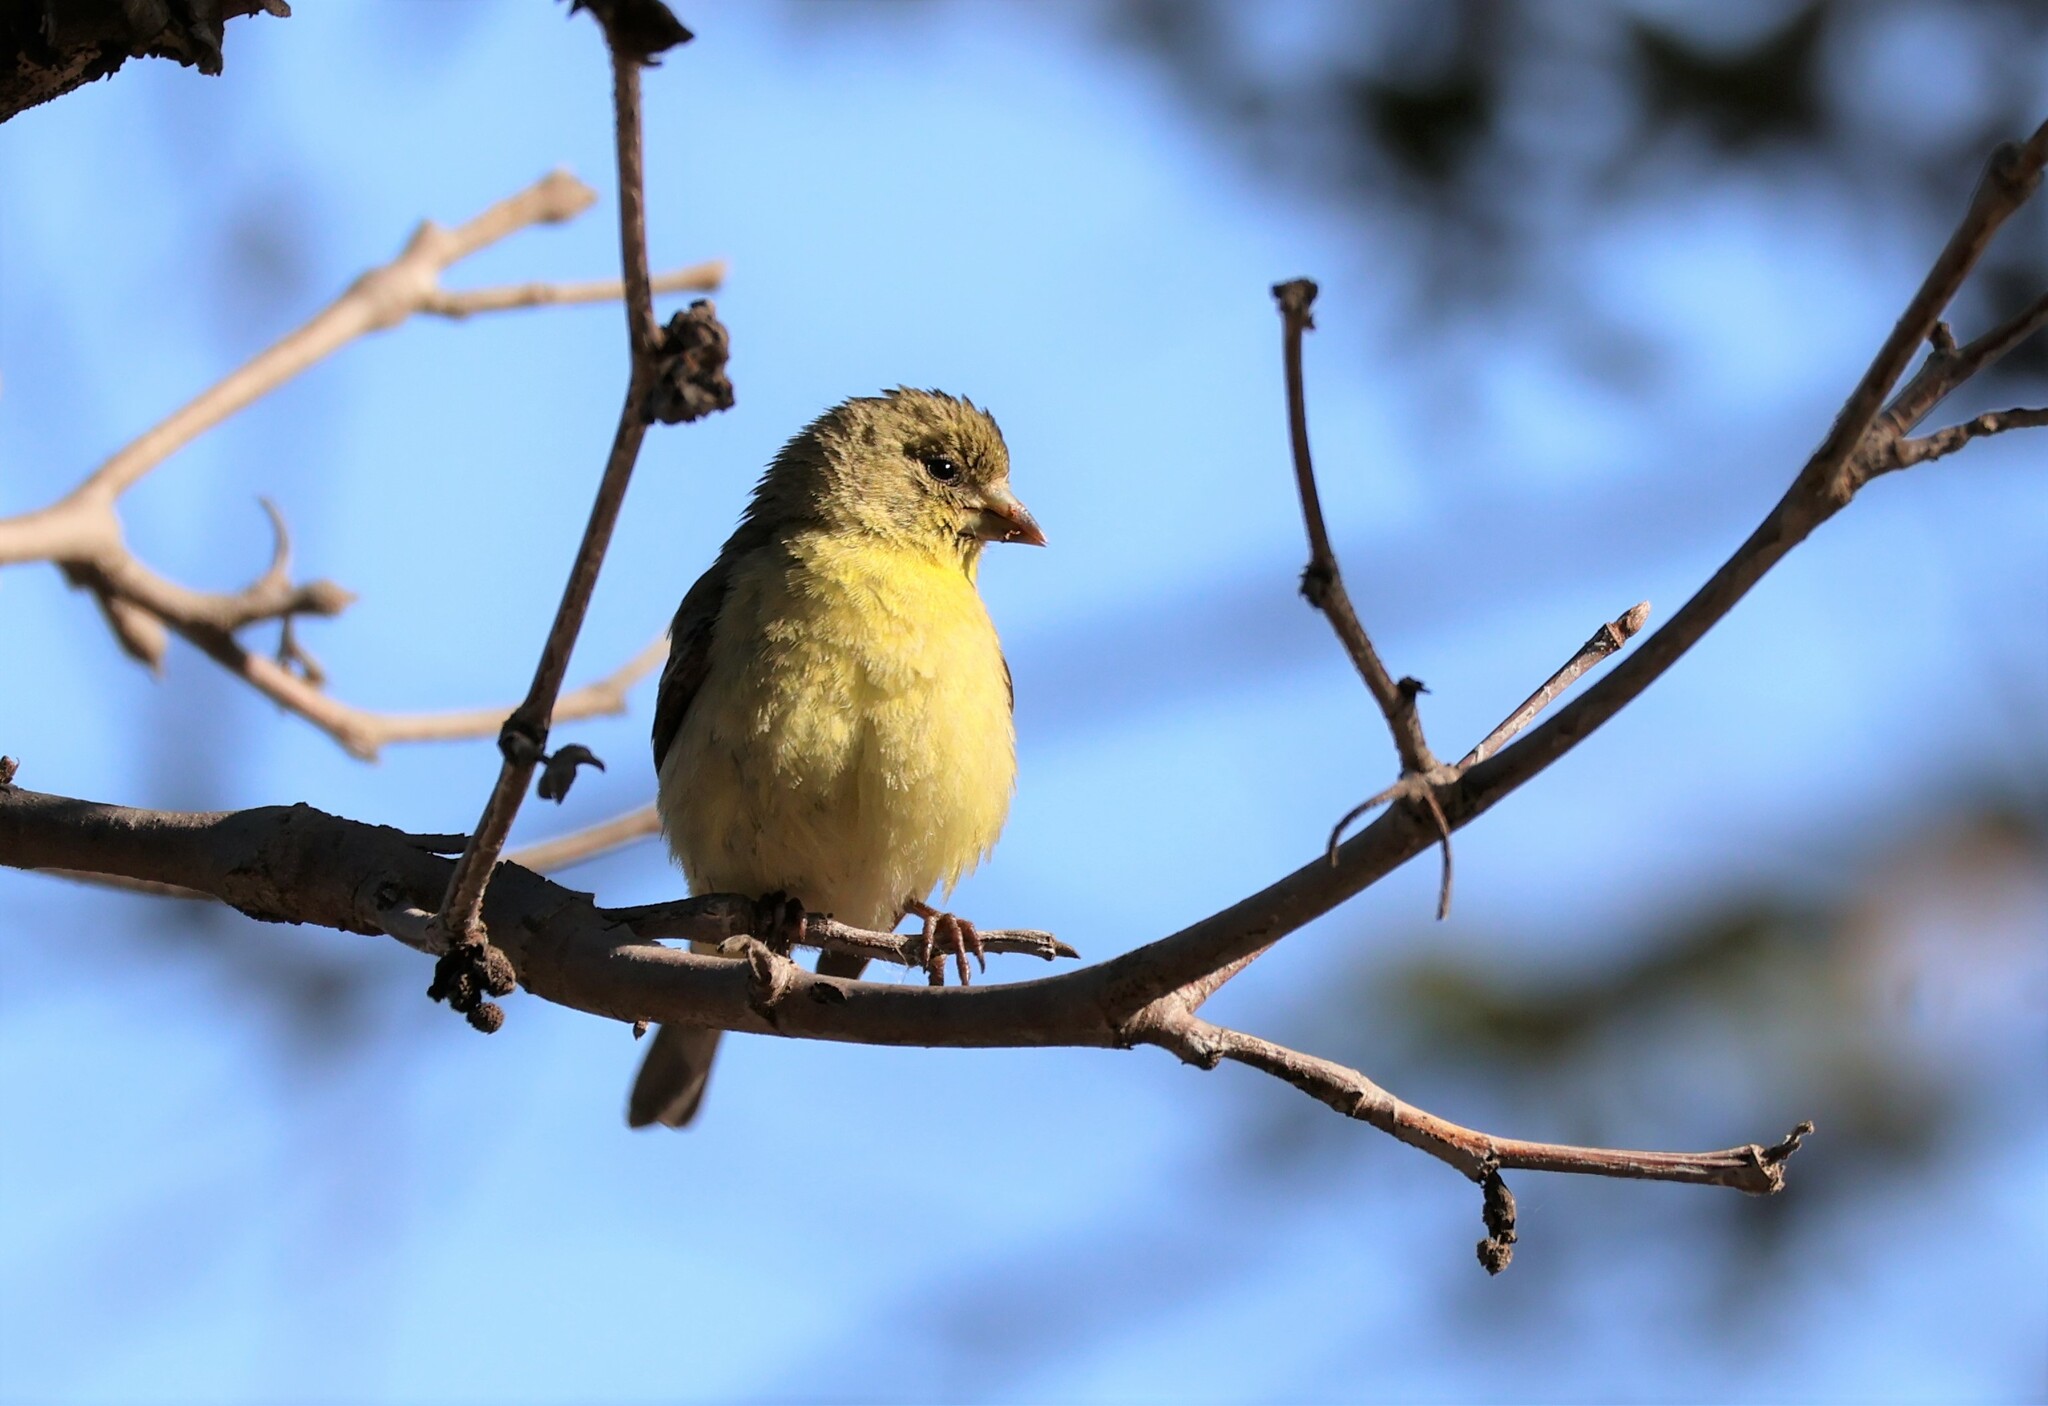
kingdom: Animalia
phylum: Chordata
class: Aves
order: Passeriformes
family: Fringillidae
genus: Spinus
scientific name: Spinus psaltria
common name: Lesser goldfinch
